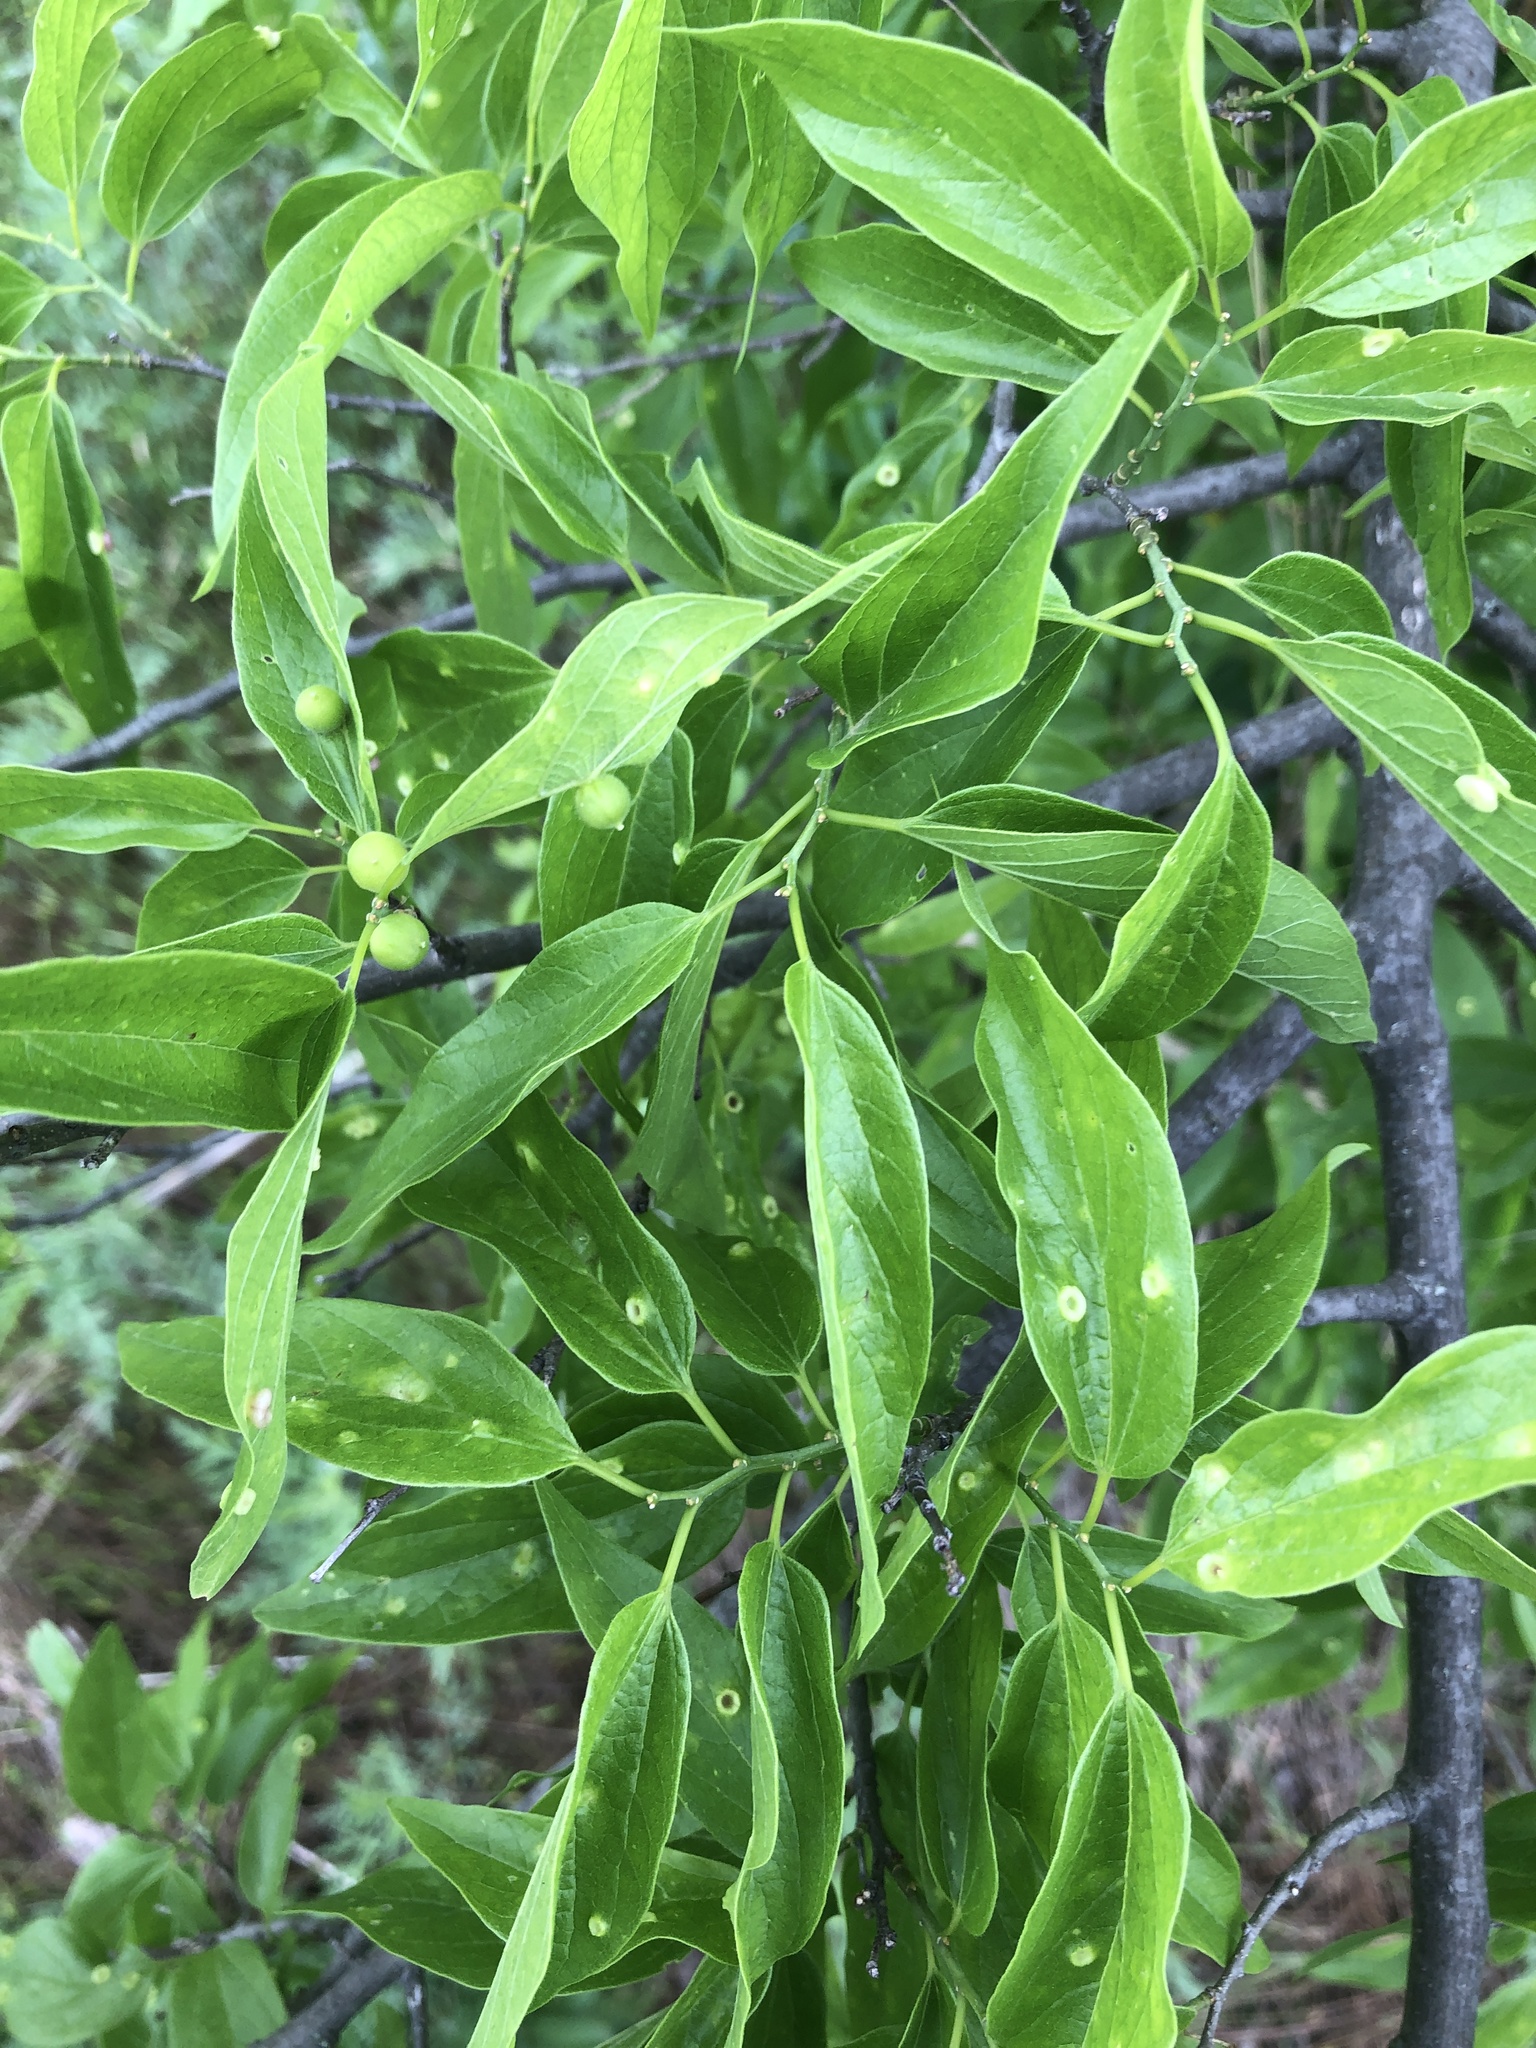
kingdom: Animalia
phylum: Arthropoda
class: Insecta
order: Hemiptera
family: Aphalaridae
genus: Pachypsylla
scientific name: Pachypsylla celtidismamma
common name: Hackberry nipplegall psyllid
